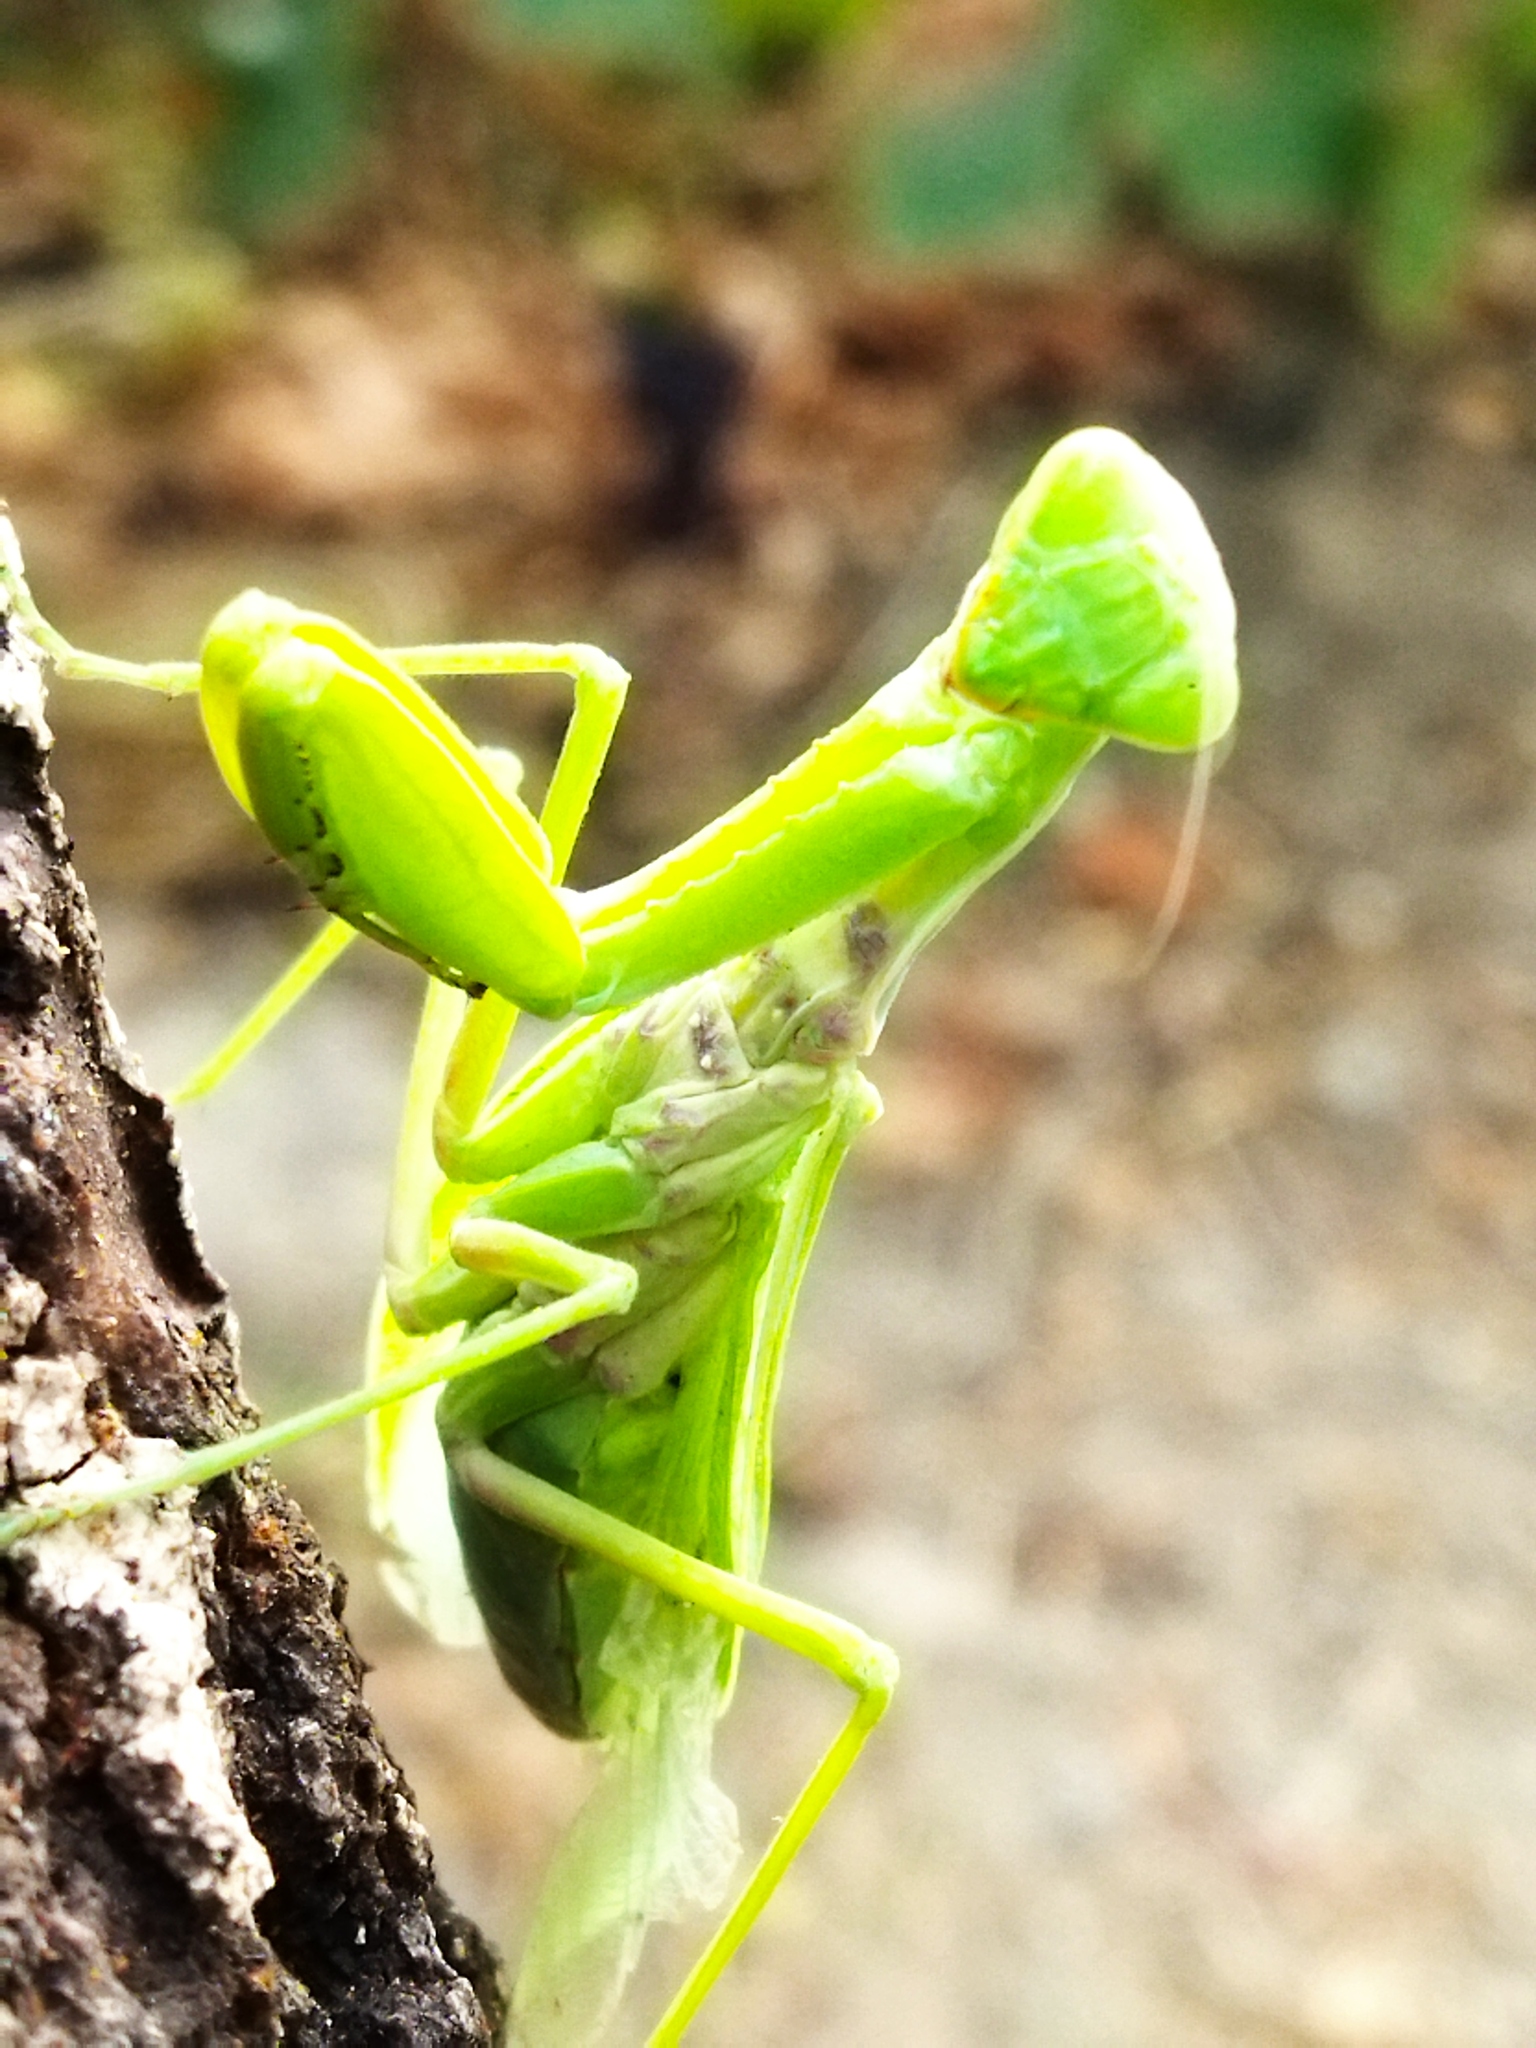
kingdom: Animalia
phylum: Arthropoda
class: Insecta
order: Mantodea
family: Mantidae
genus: Hierodula
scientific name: Hierodula transcaucasica
